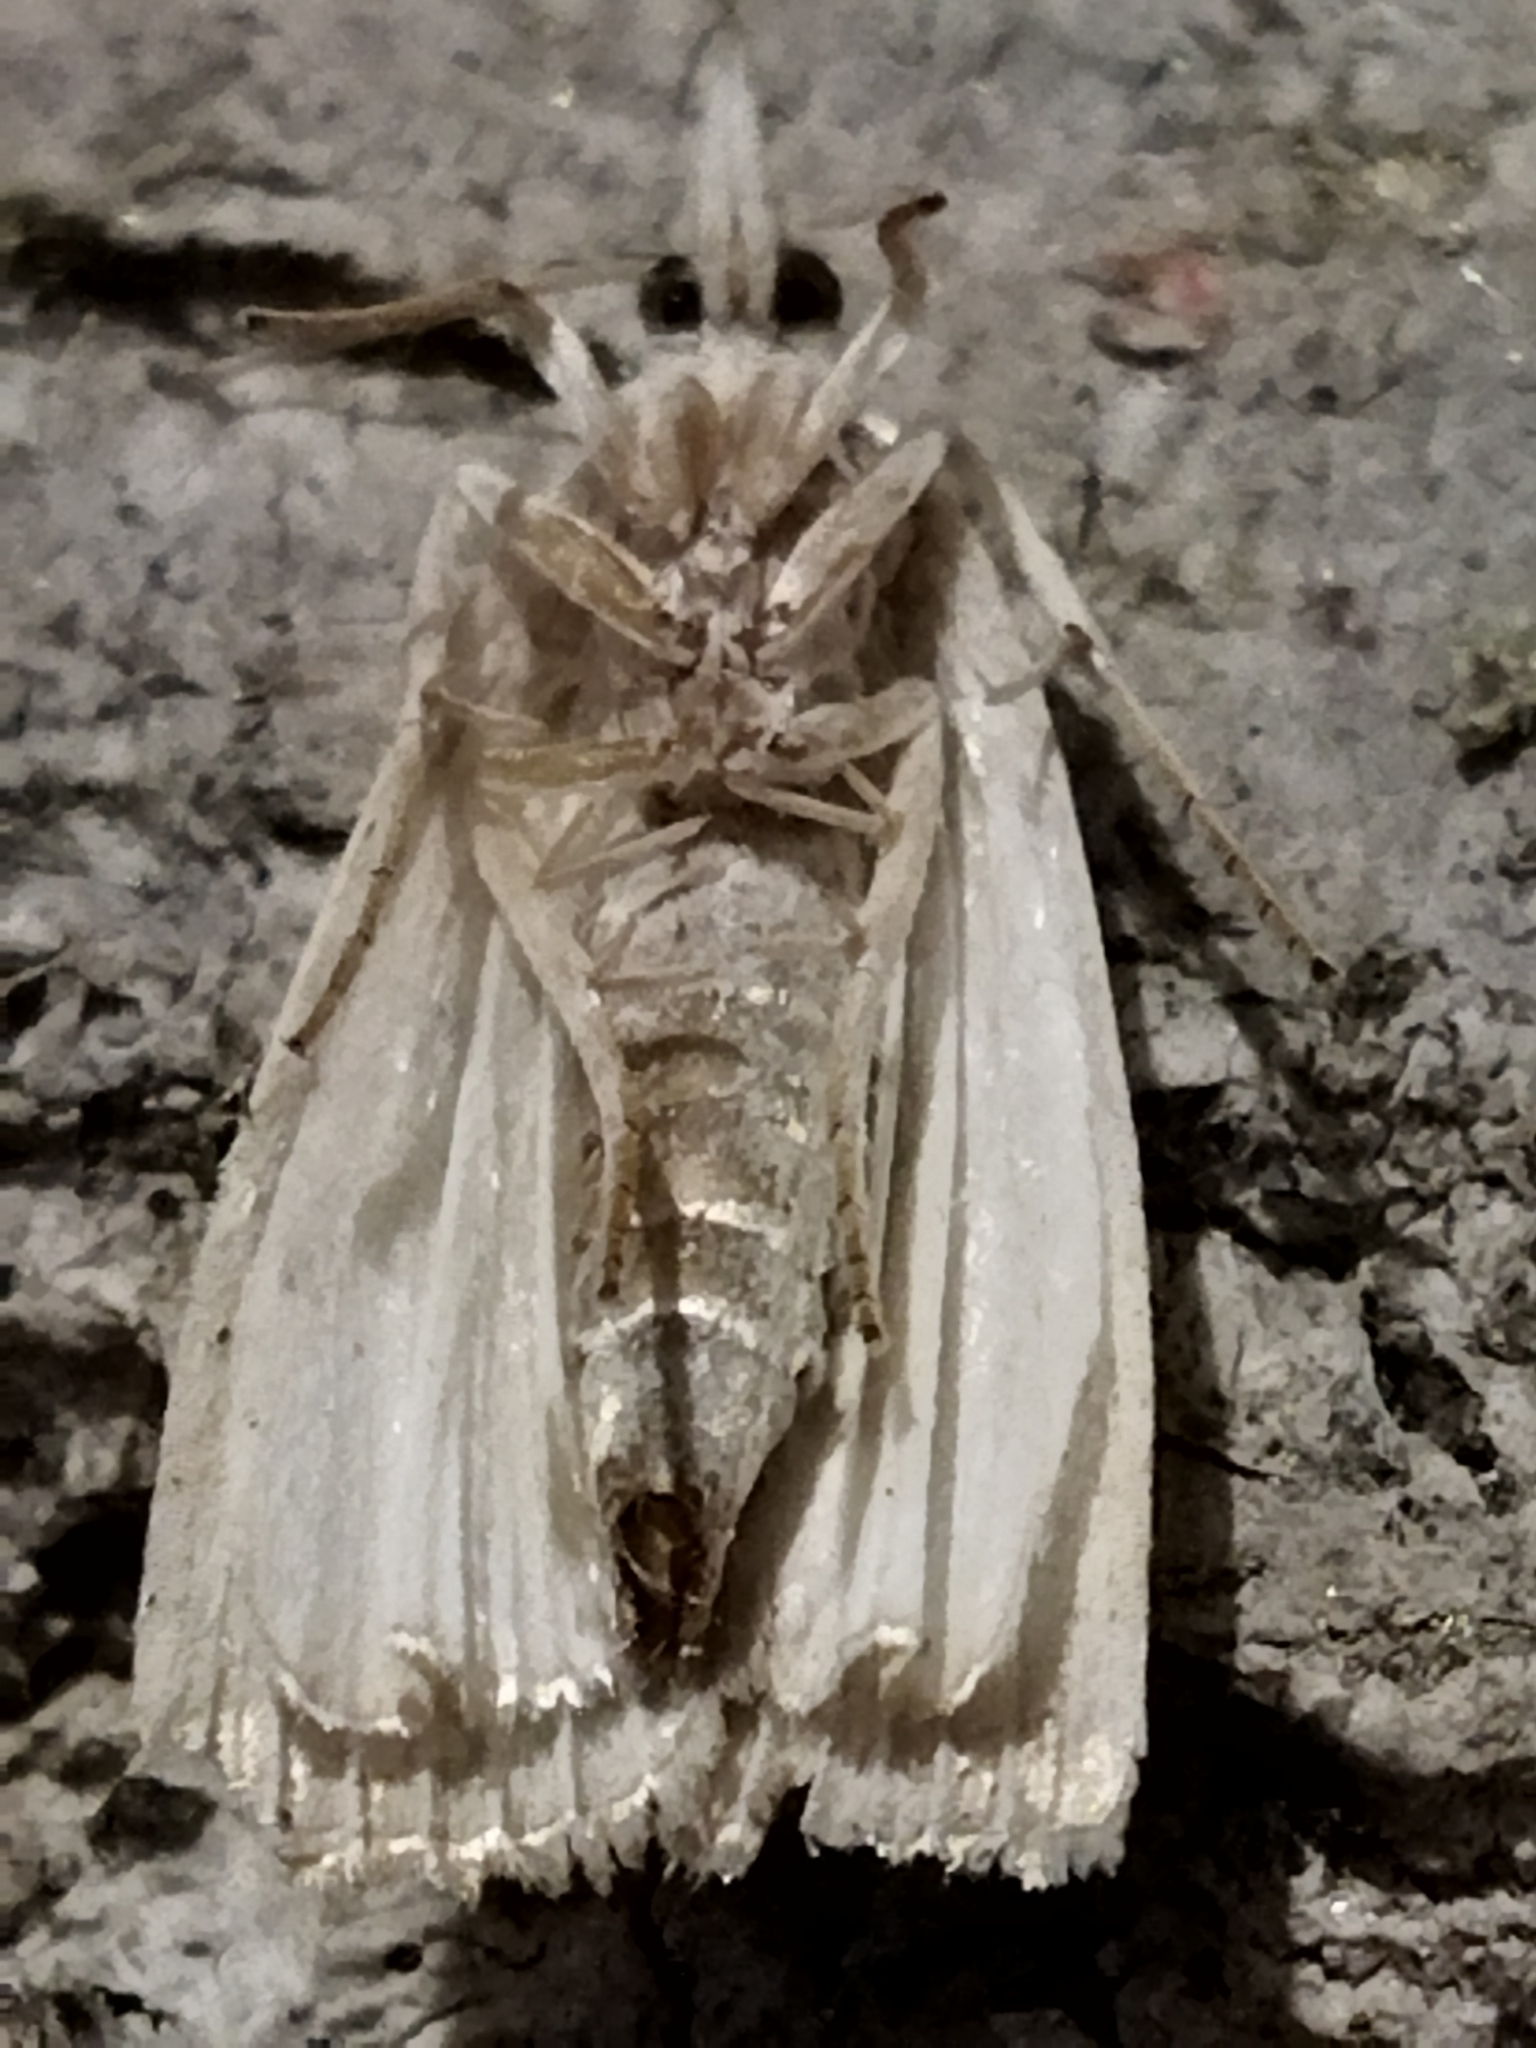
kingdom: Animalia
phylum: Arthropoda
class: Insecta
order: Lepidoptera
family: Crambidae
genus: Calamotropha
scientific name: Calamotropha paludella
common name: Bulrush veneer
